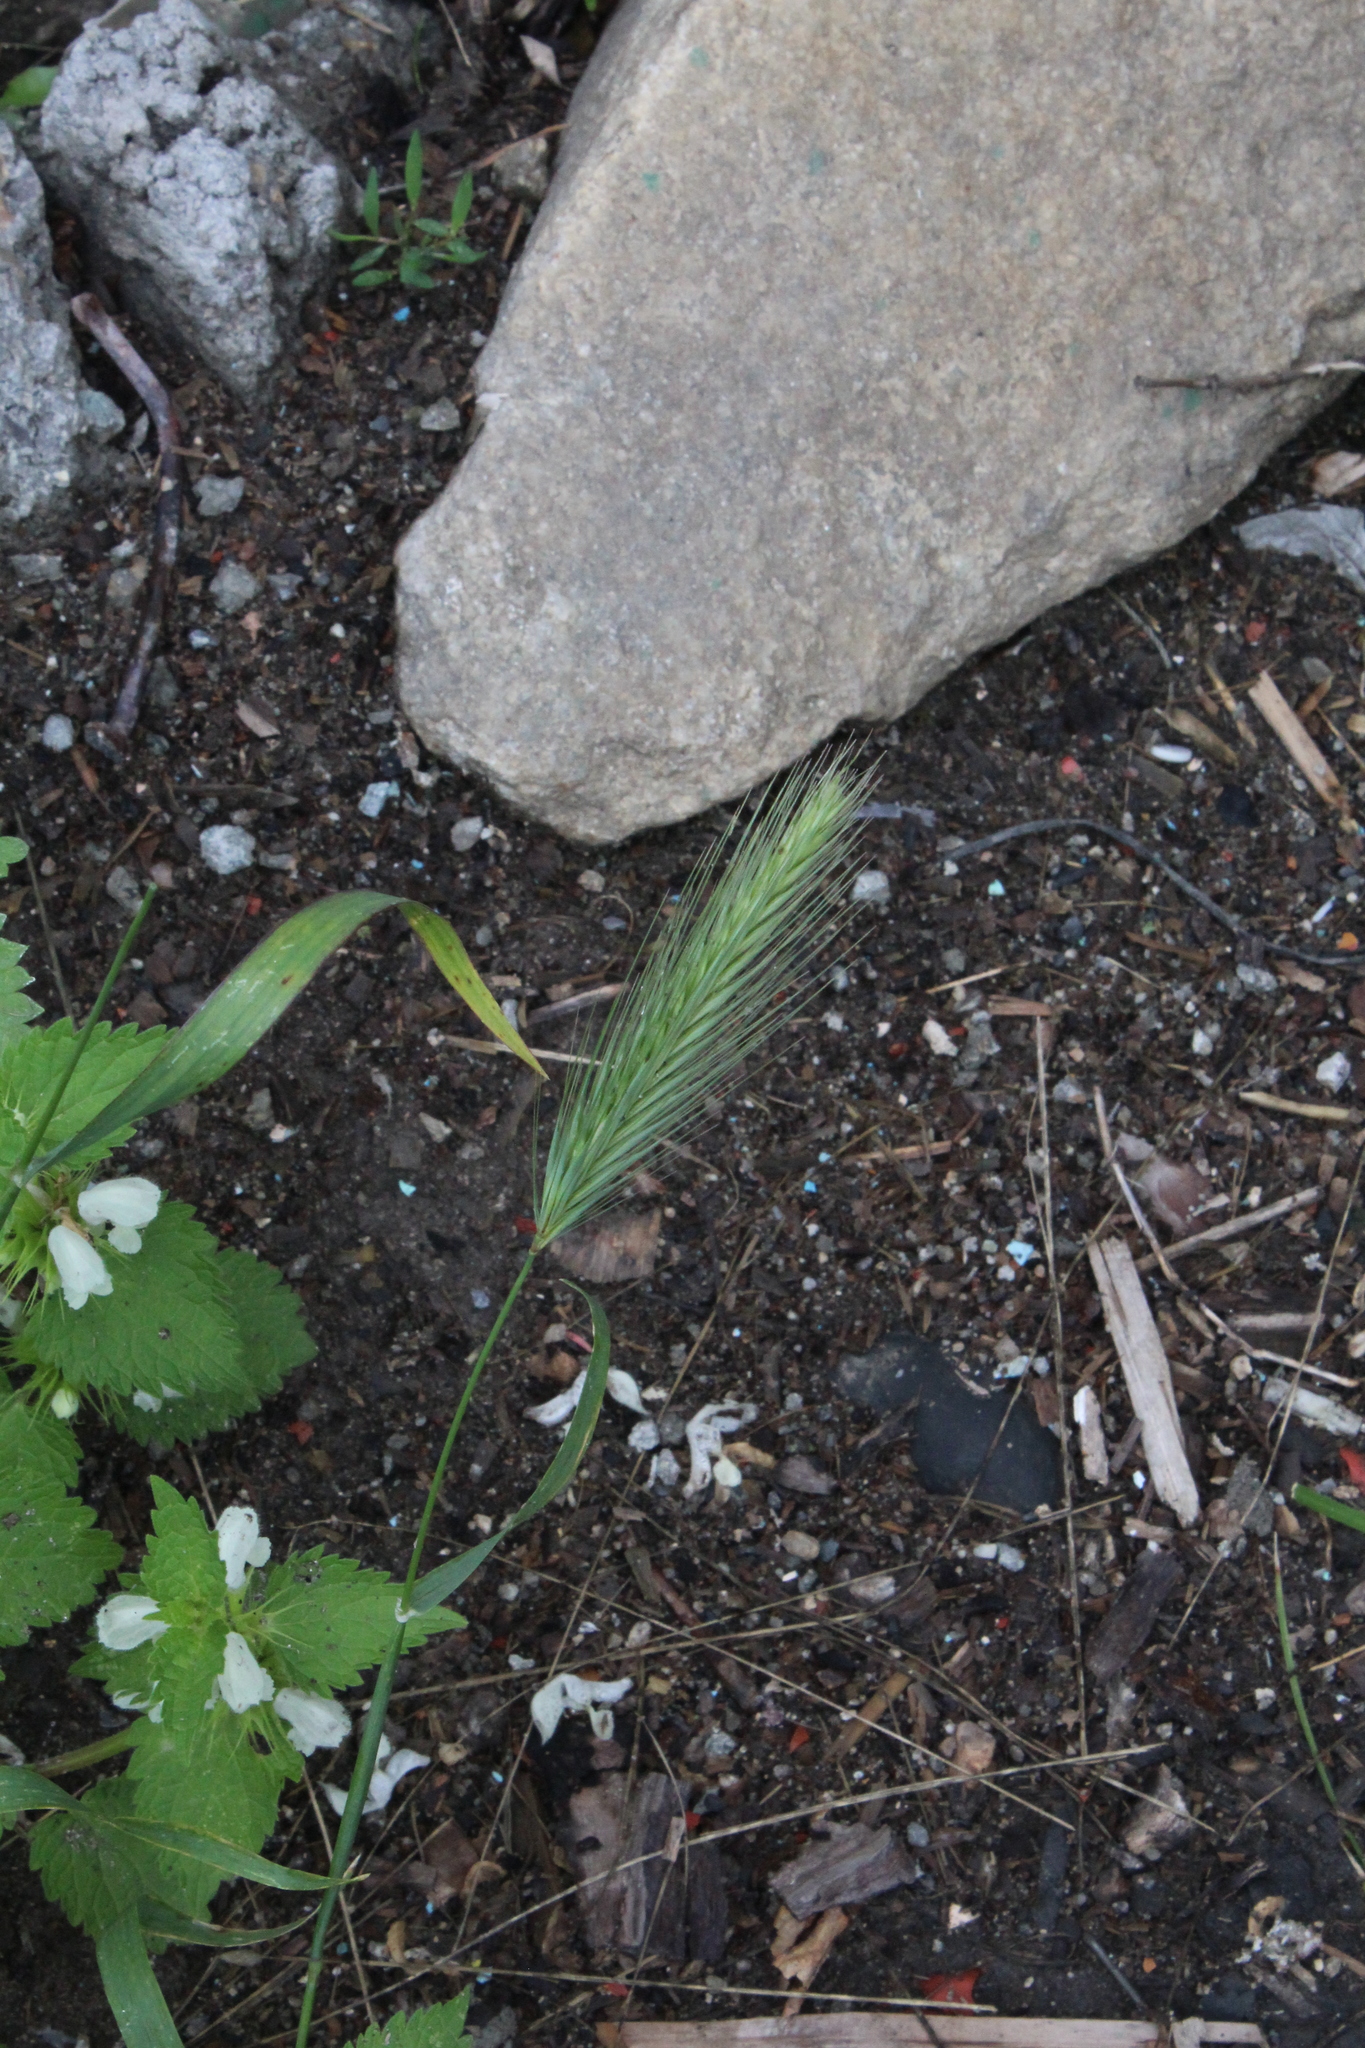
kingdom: Plantae
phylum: Tracheophyta
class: Liliopsida
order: Poales
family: Poaceae
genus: Hordeum
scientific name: Hordeum murinum
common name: Wall barley
